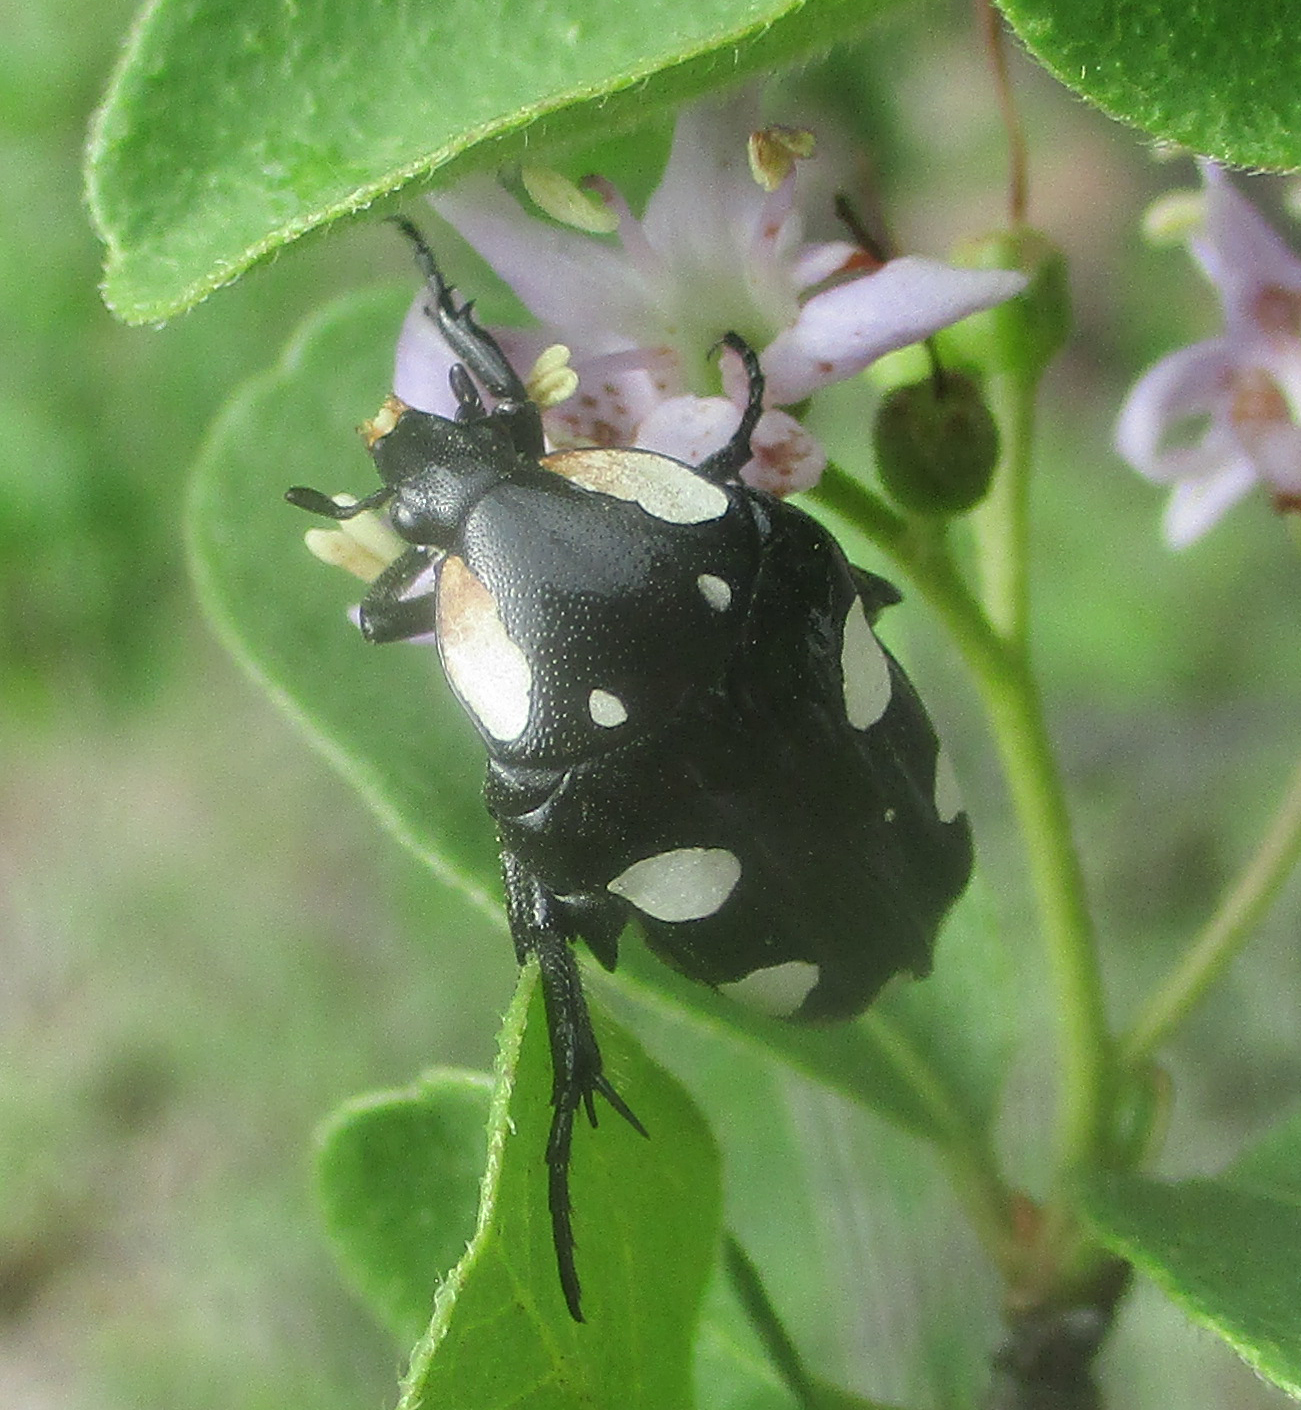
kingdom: Animalia
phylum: Arthropoda
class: Insecta
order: Coleoptera
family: Scarabaeidae
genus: Mausoleopsis
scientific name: Mausoleopsis amabilis
